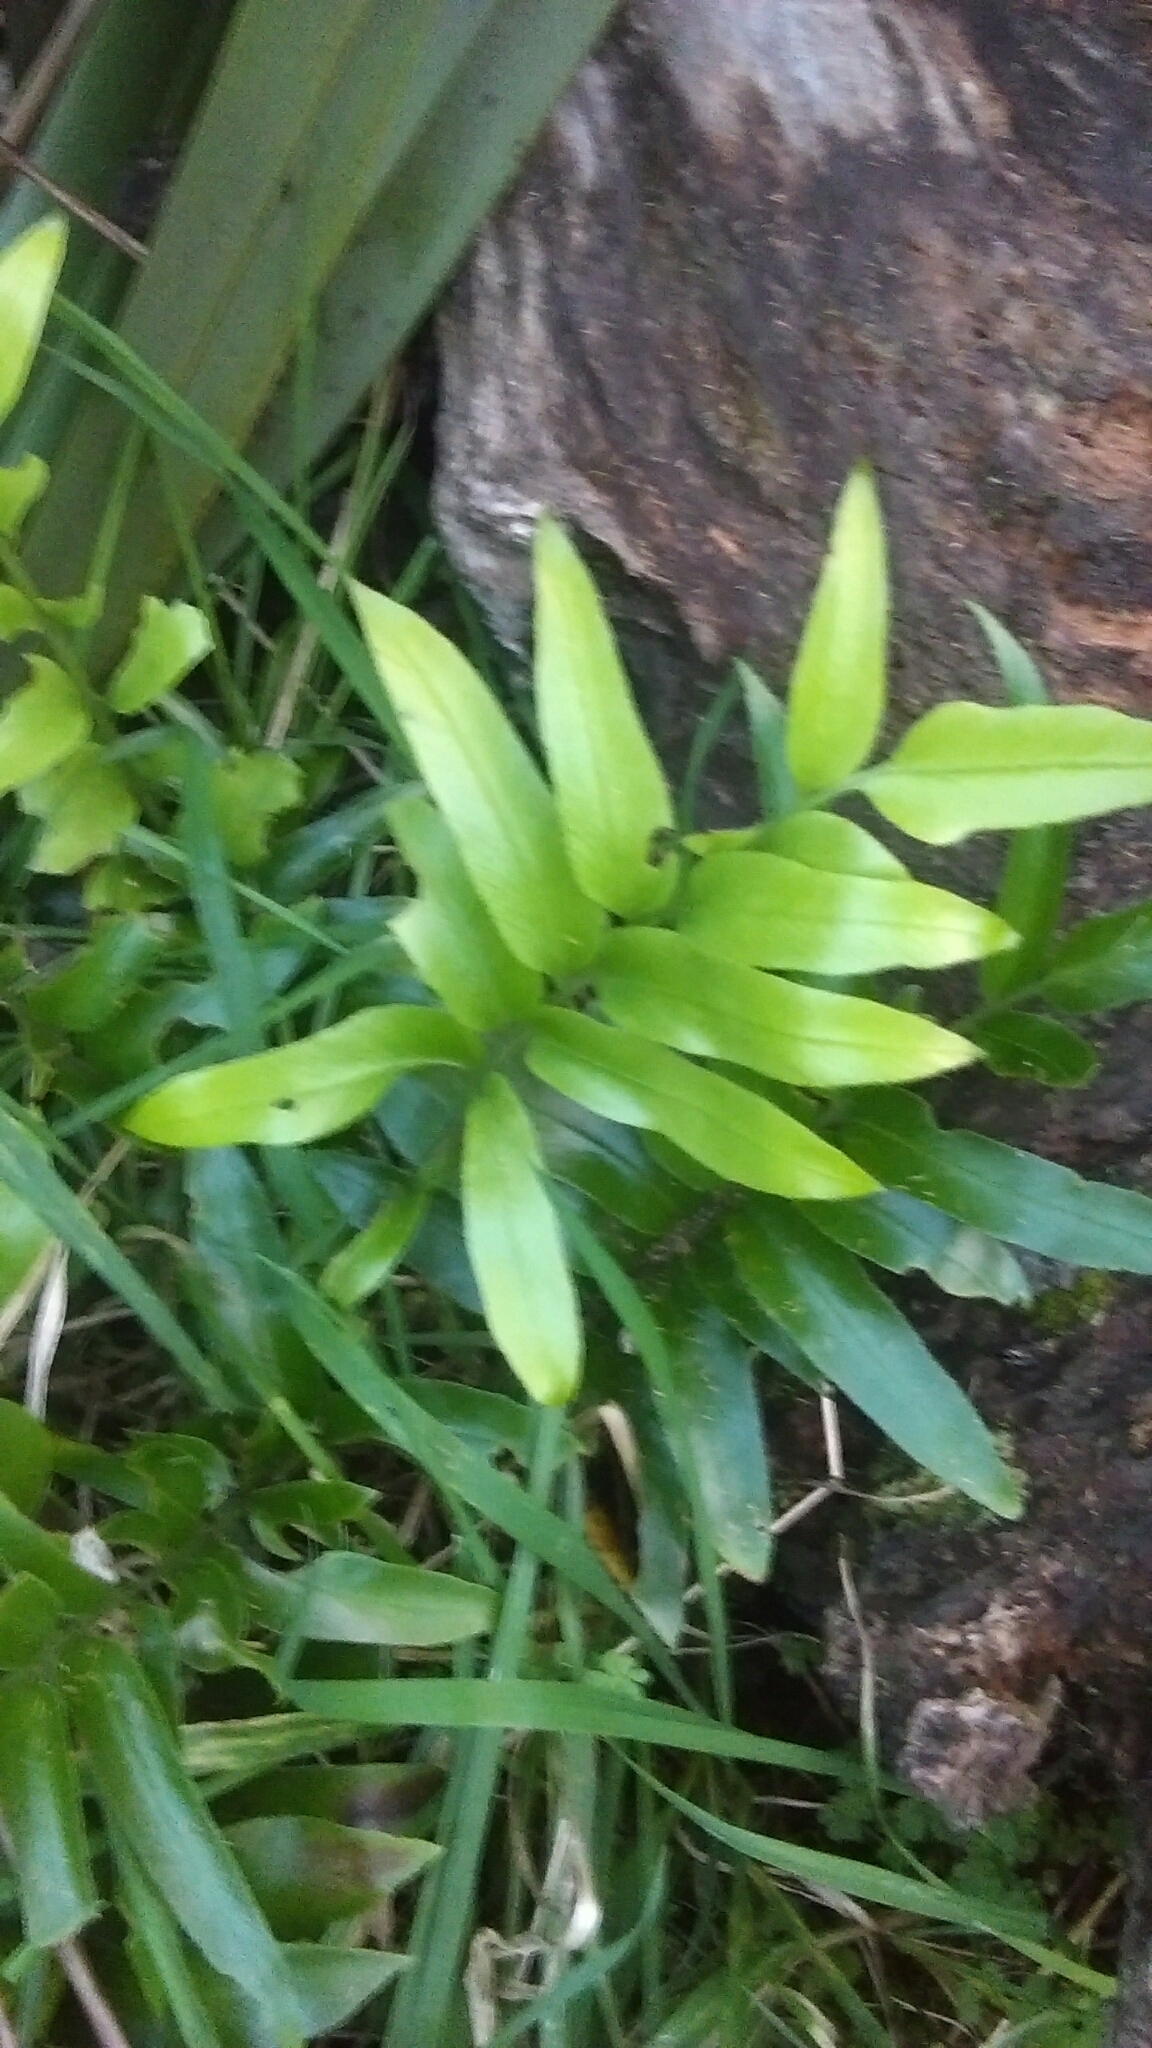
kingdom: Plantae
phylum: Tracheophyta
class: Polypodiopsida
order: Polypodiales
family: Aspleniaceae
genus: Asplenium
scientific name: Asplenium oblongifolium
